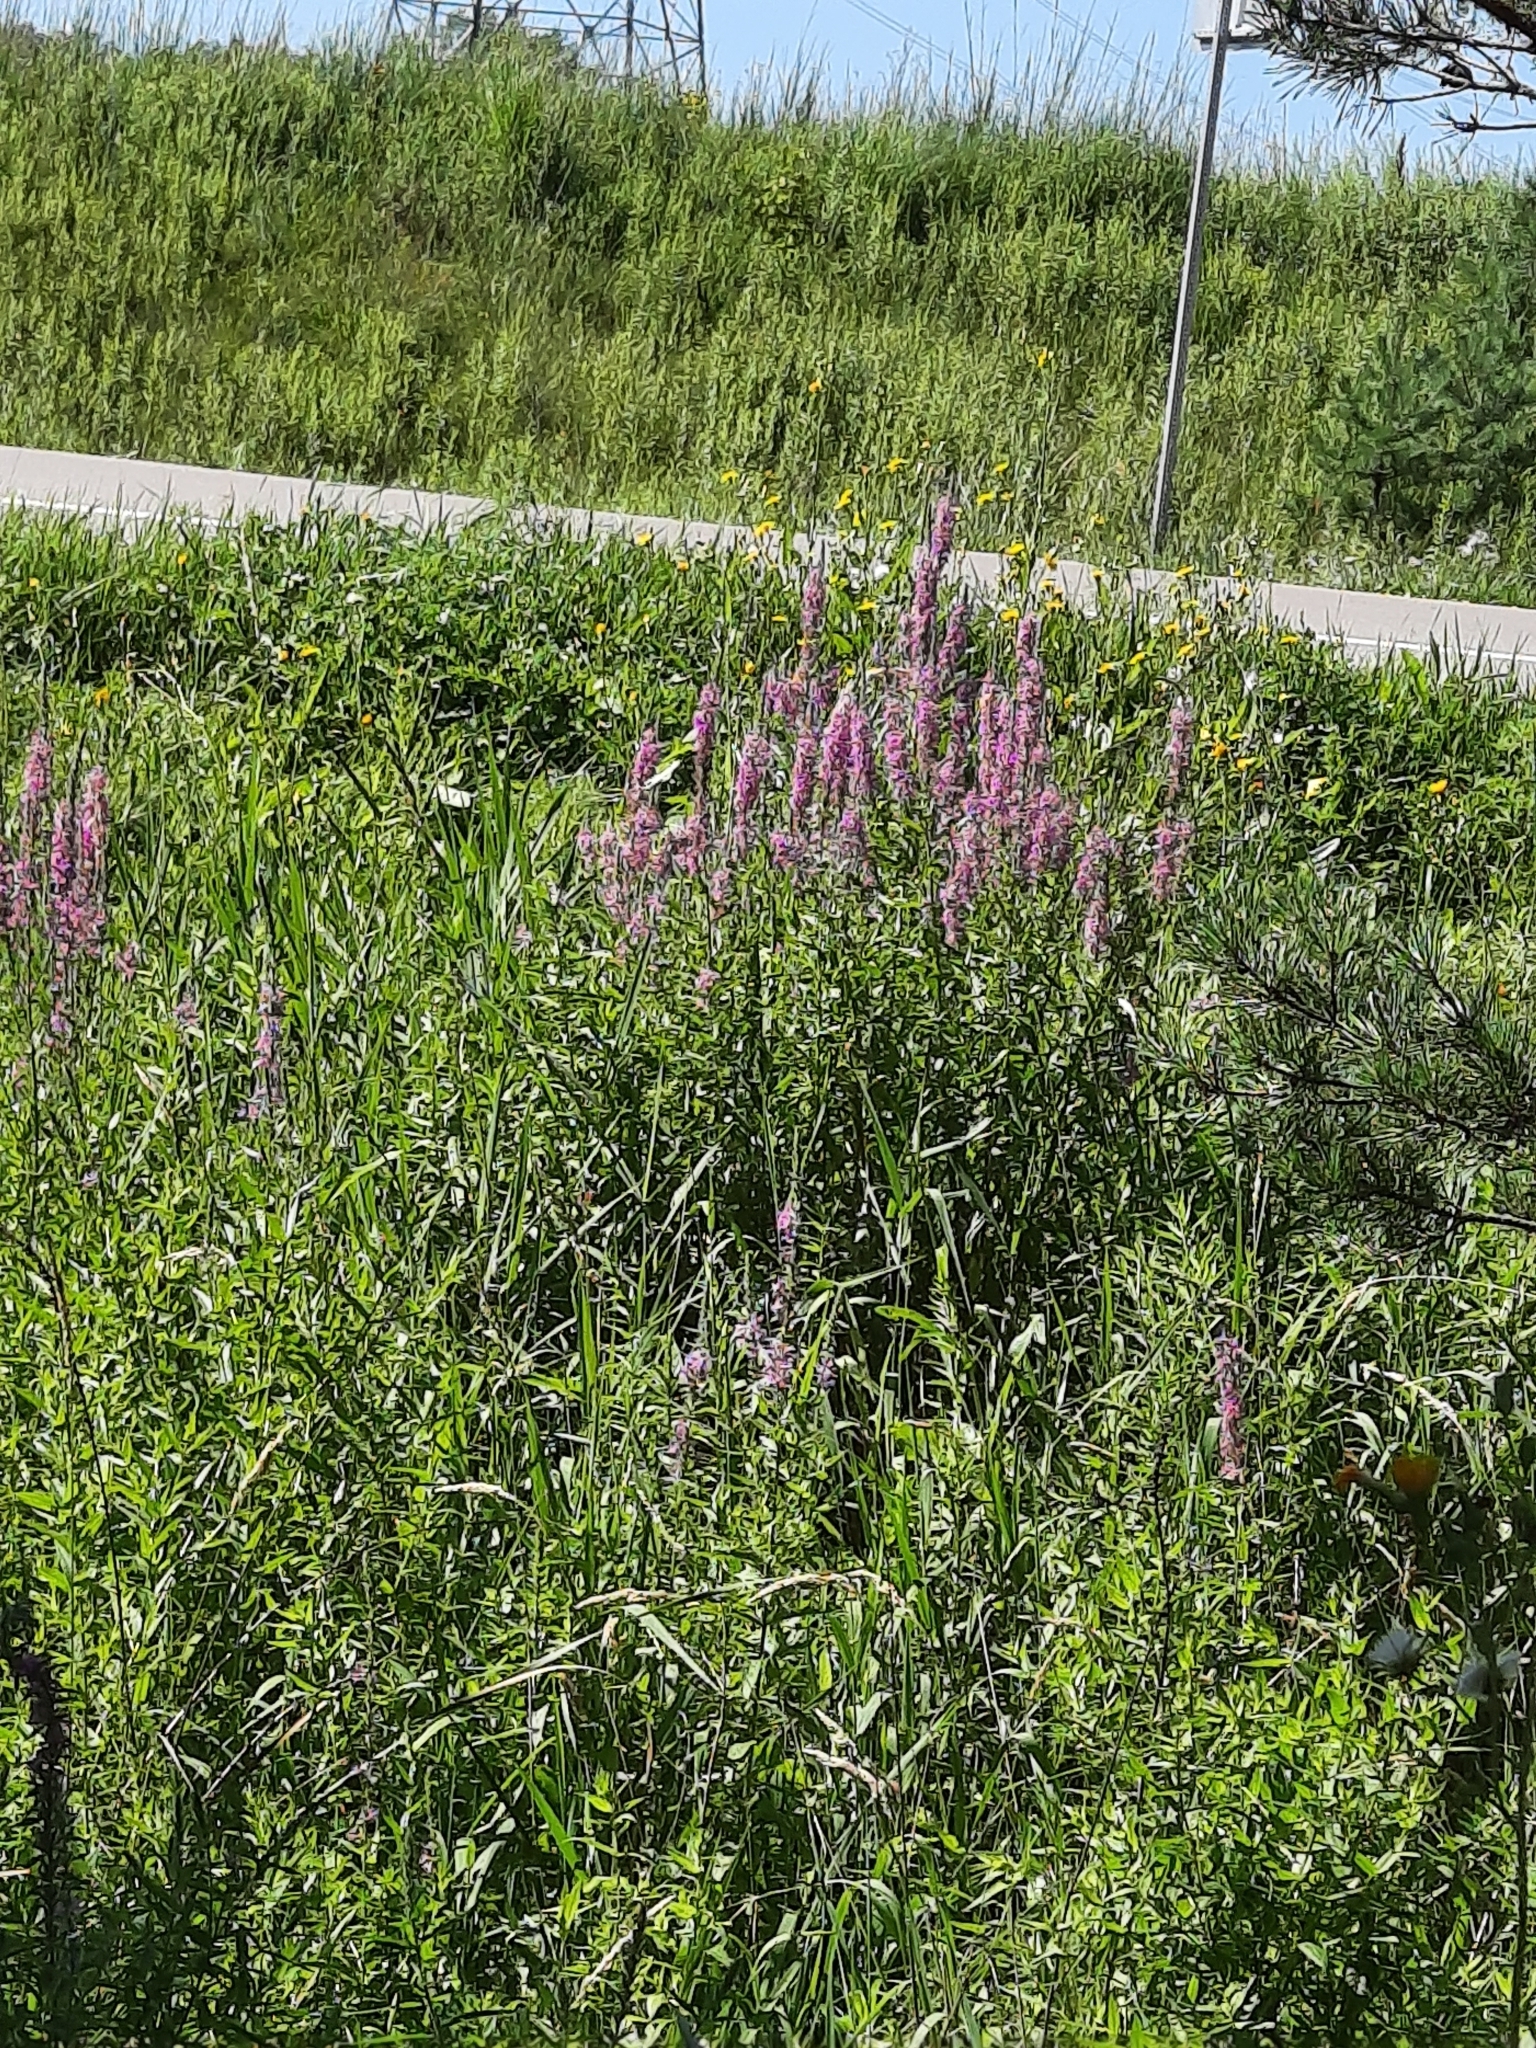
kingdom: Plantae
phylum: Tracheophyta
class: Magnoliopsida
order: Myrtales
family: Lythraceae
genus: Lythrum
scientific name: Lythrum salicaria
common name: Purple loosestrife
